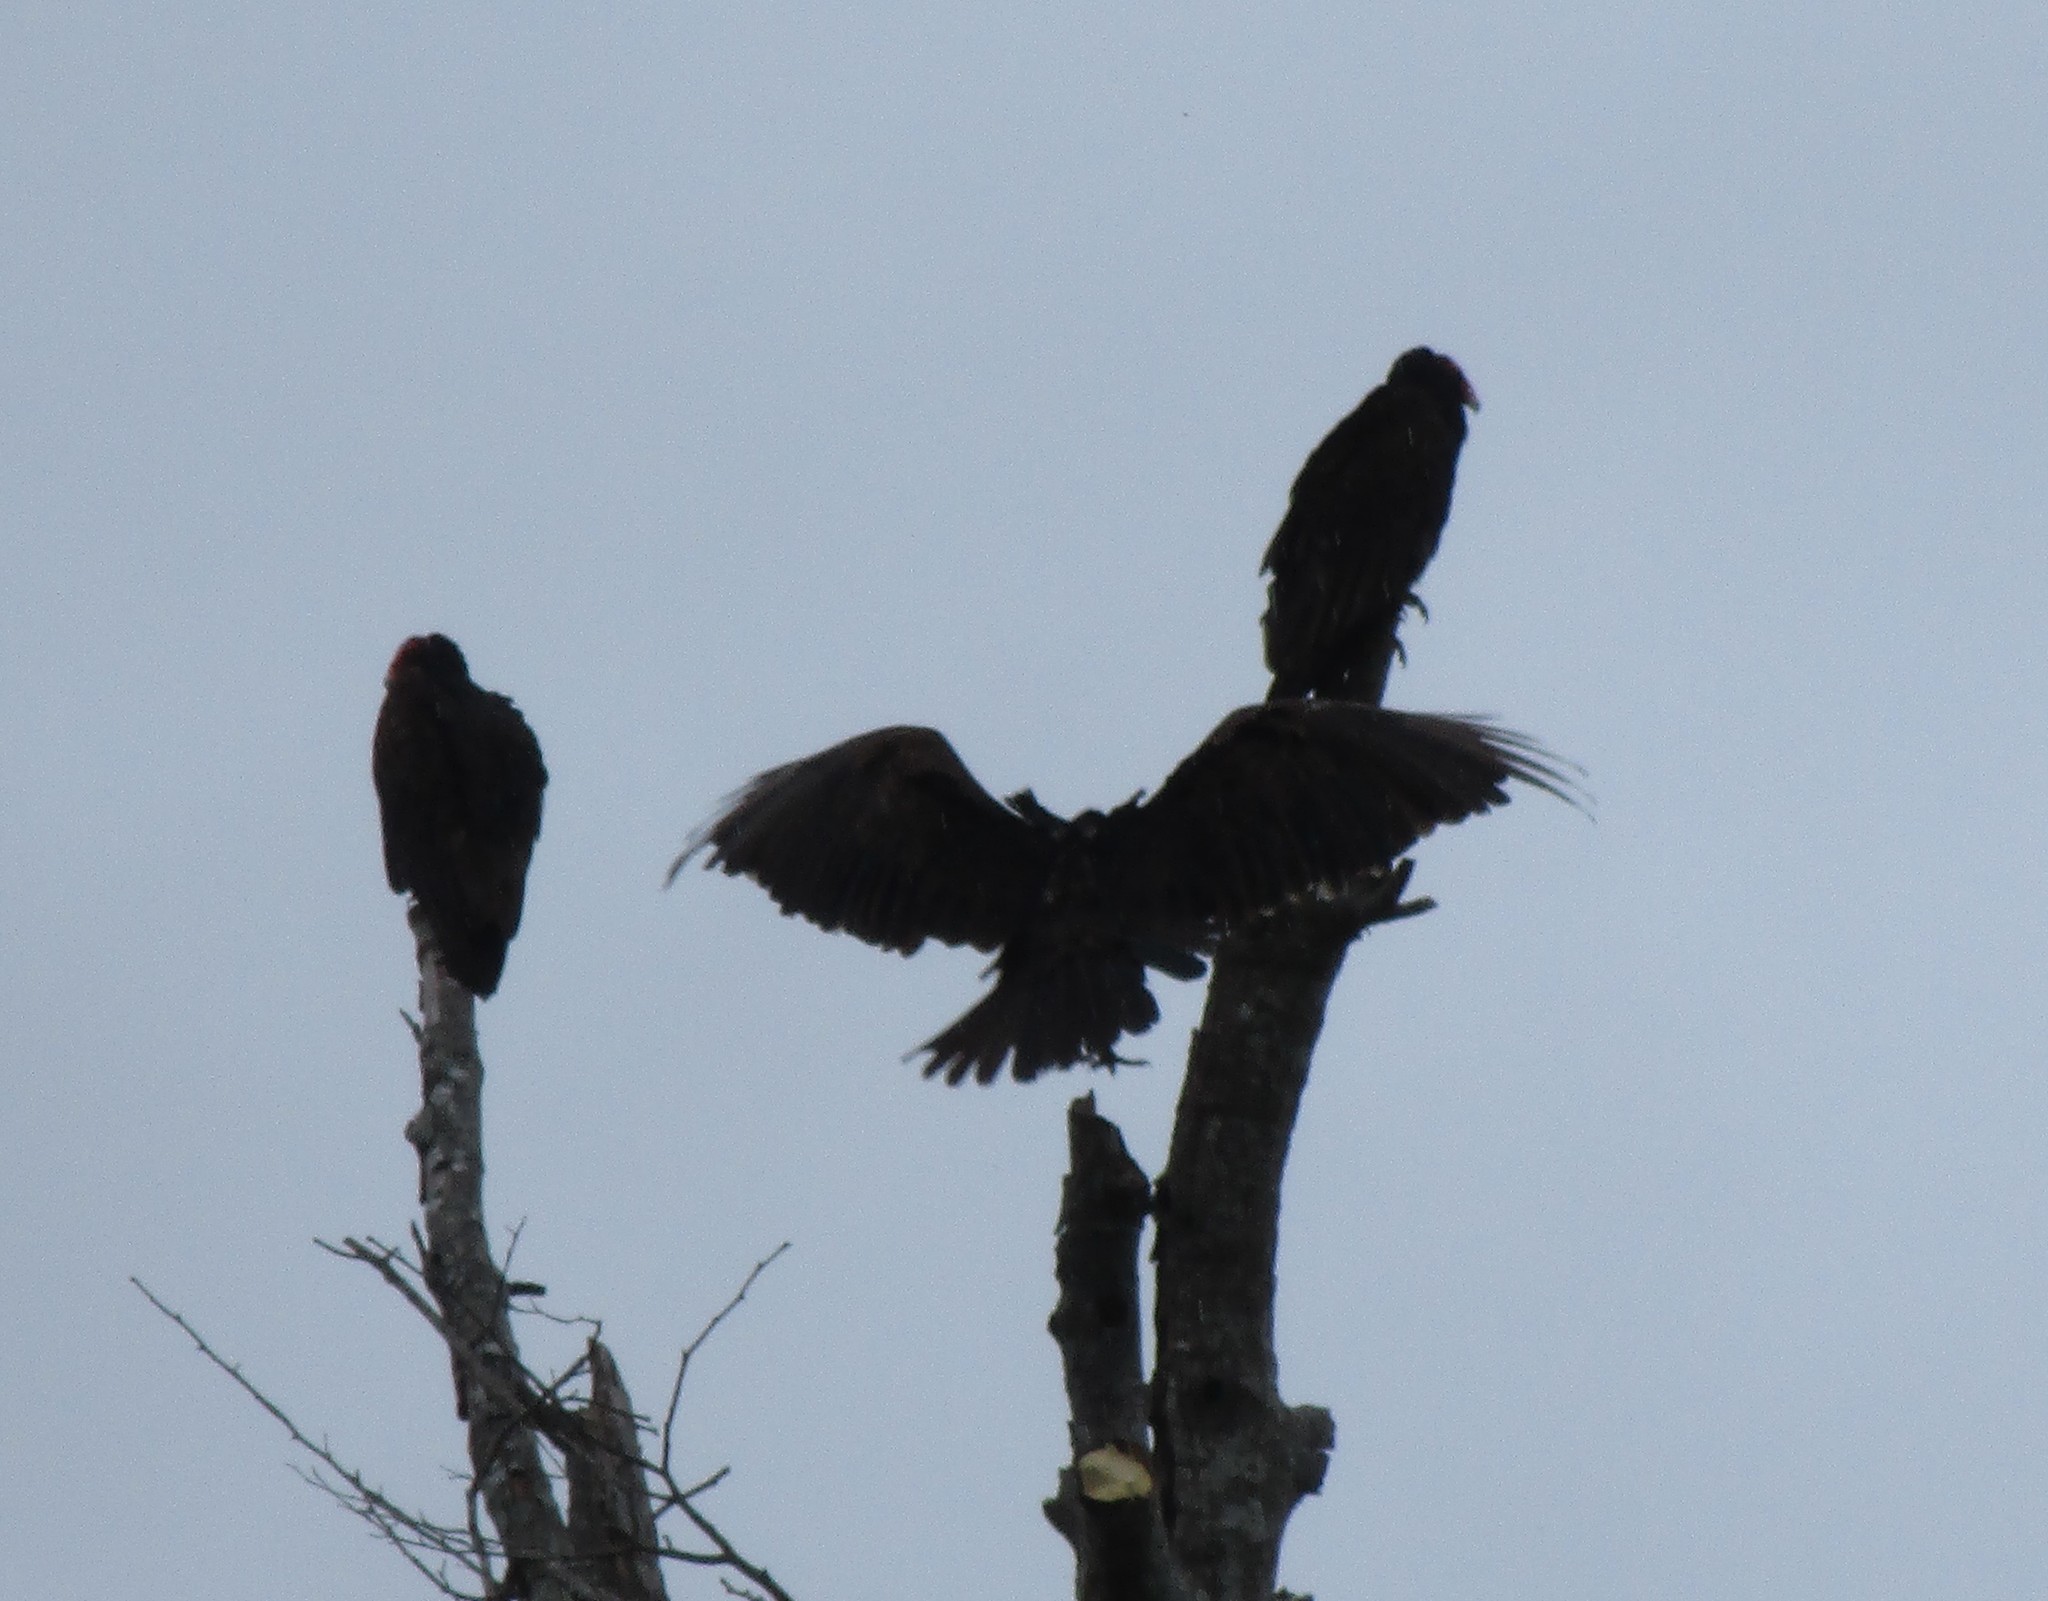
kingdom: Animalia
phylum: Chordata
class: Aves
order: Accipitriformes
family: Cathartidae
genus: Cathartes
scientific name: Cathartes aura
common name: Turkey vulture
